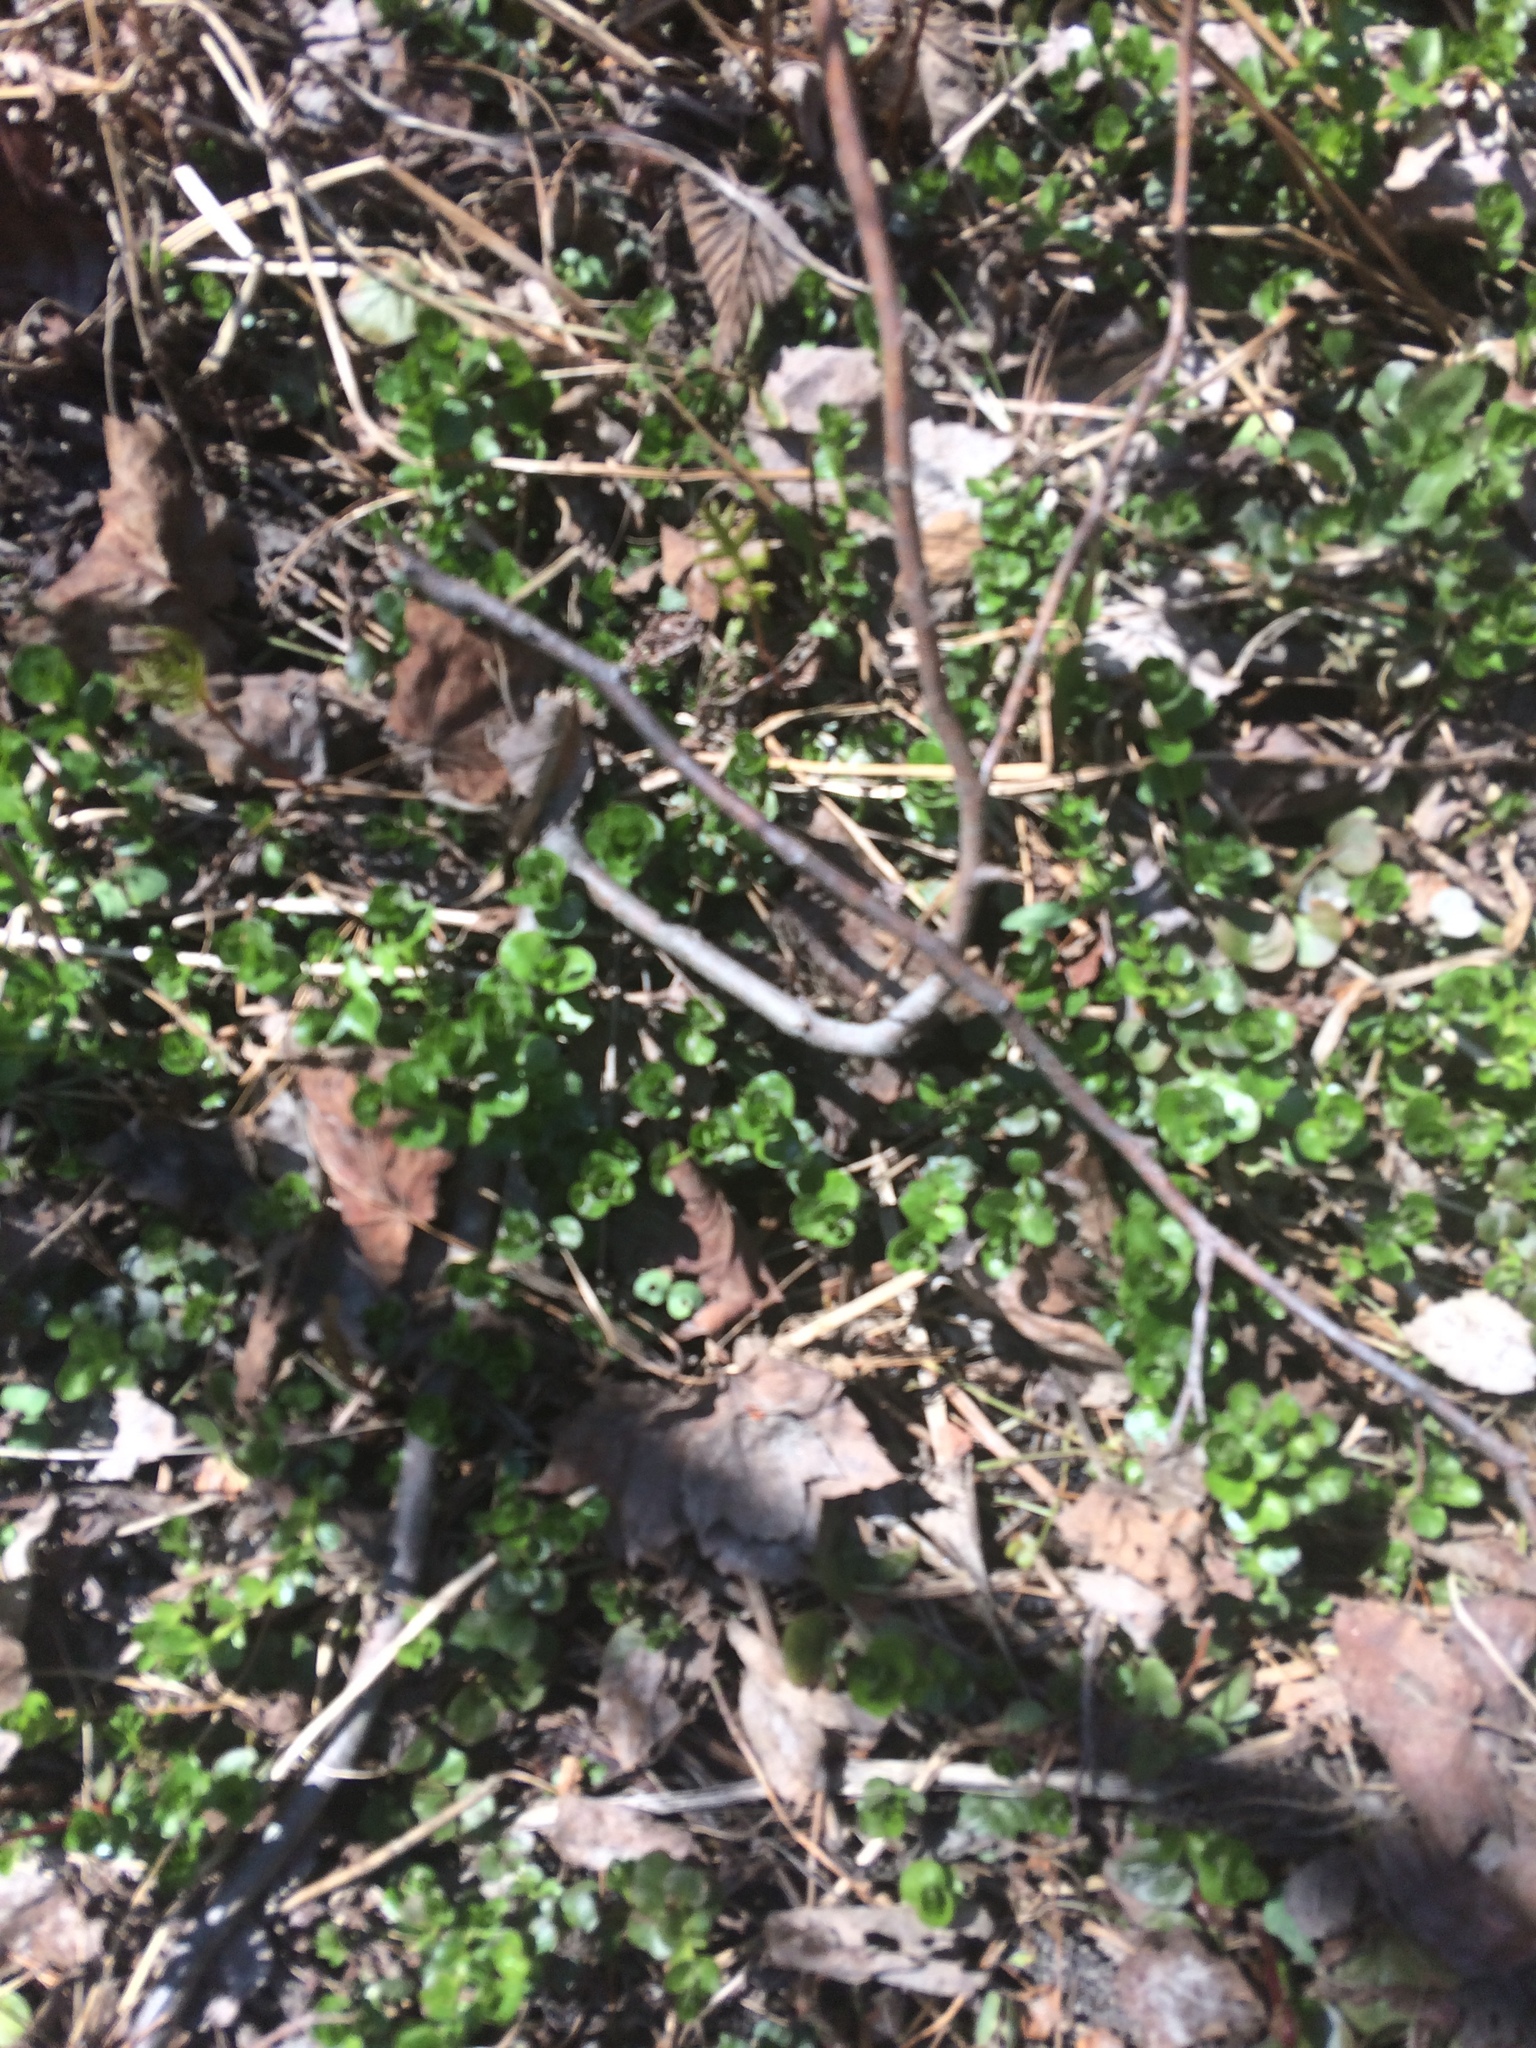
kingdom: Plantae
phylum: Tracheophyta
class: Magnoliopsida
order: Ericales
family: Primulaceae
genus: Lysimachia
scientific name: Lysimachia nummularia
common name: Moneywort
